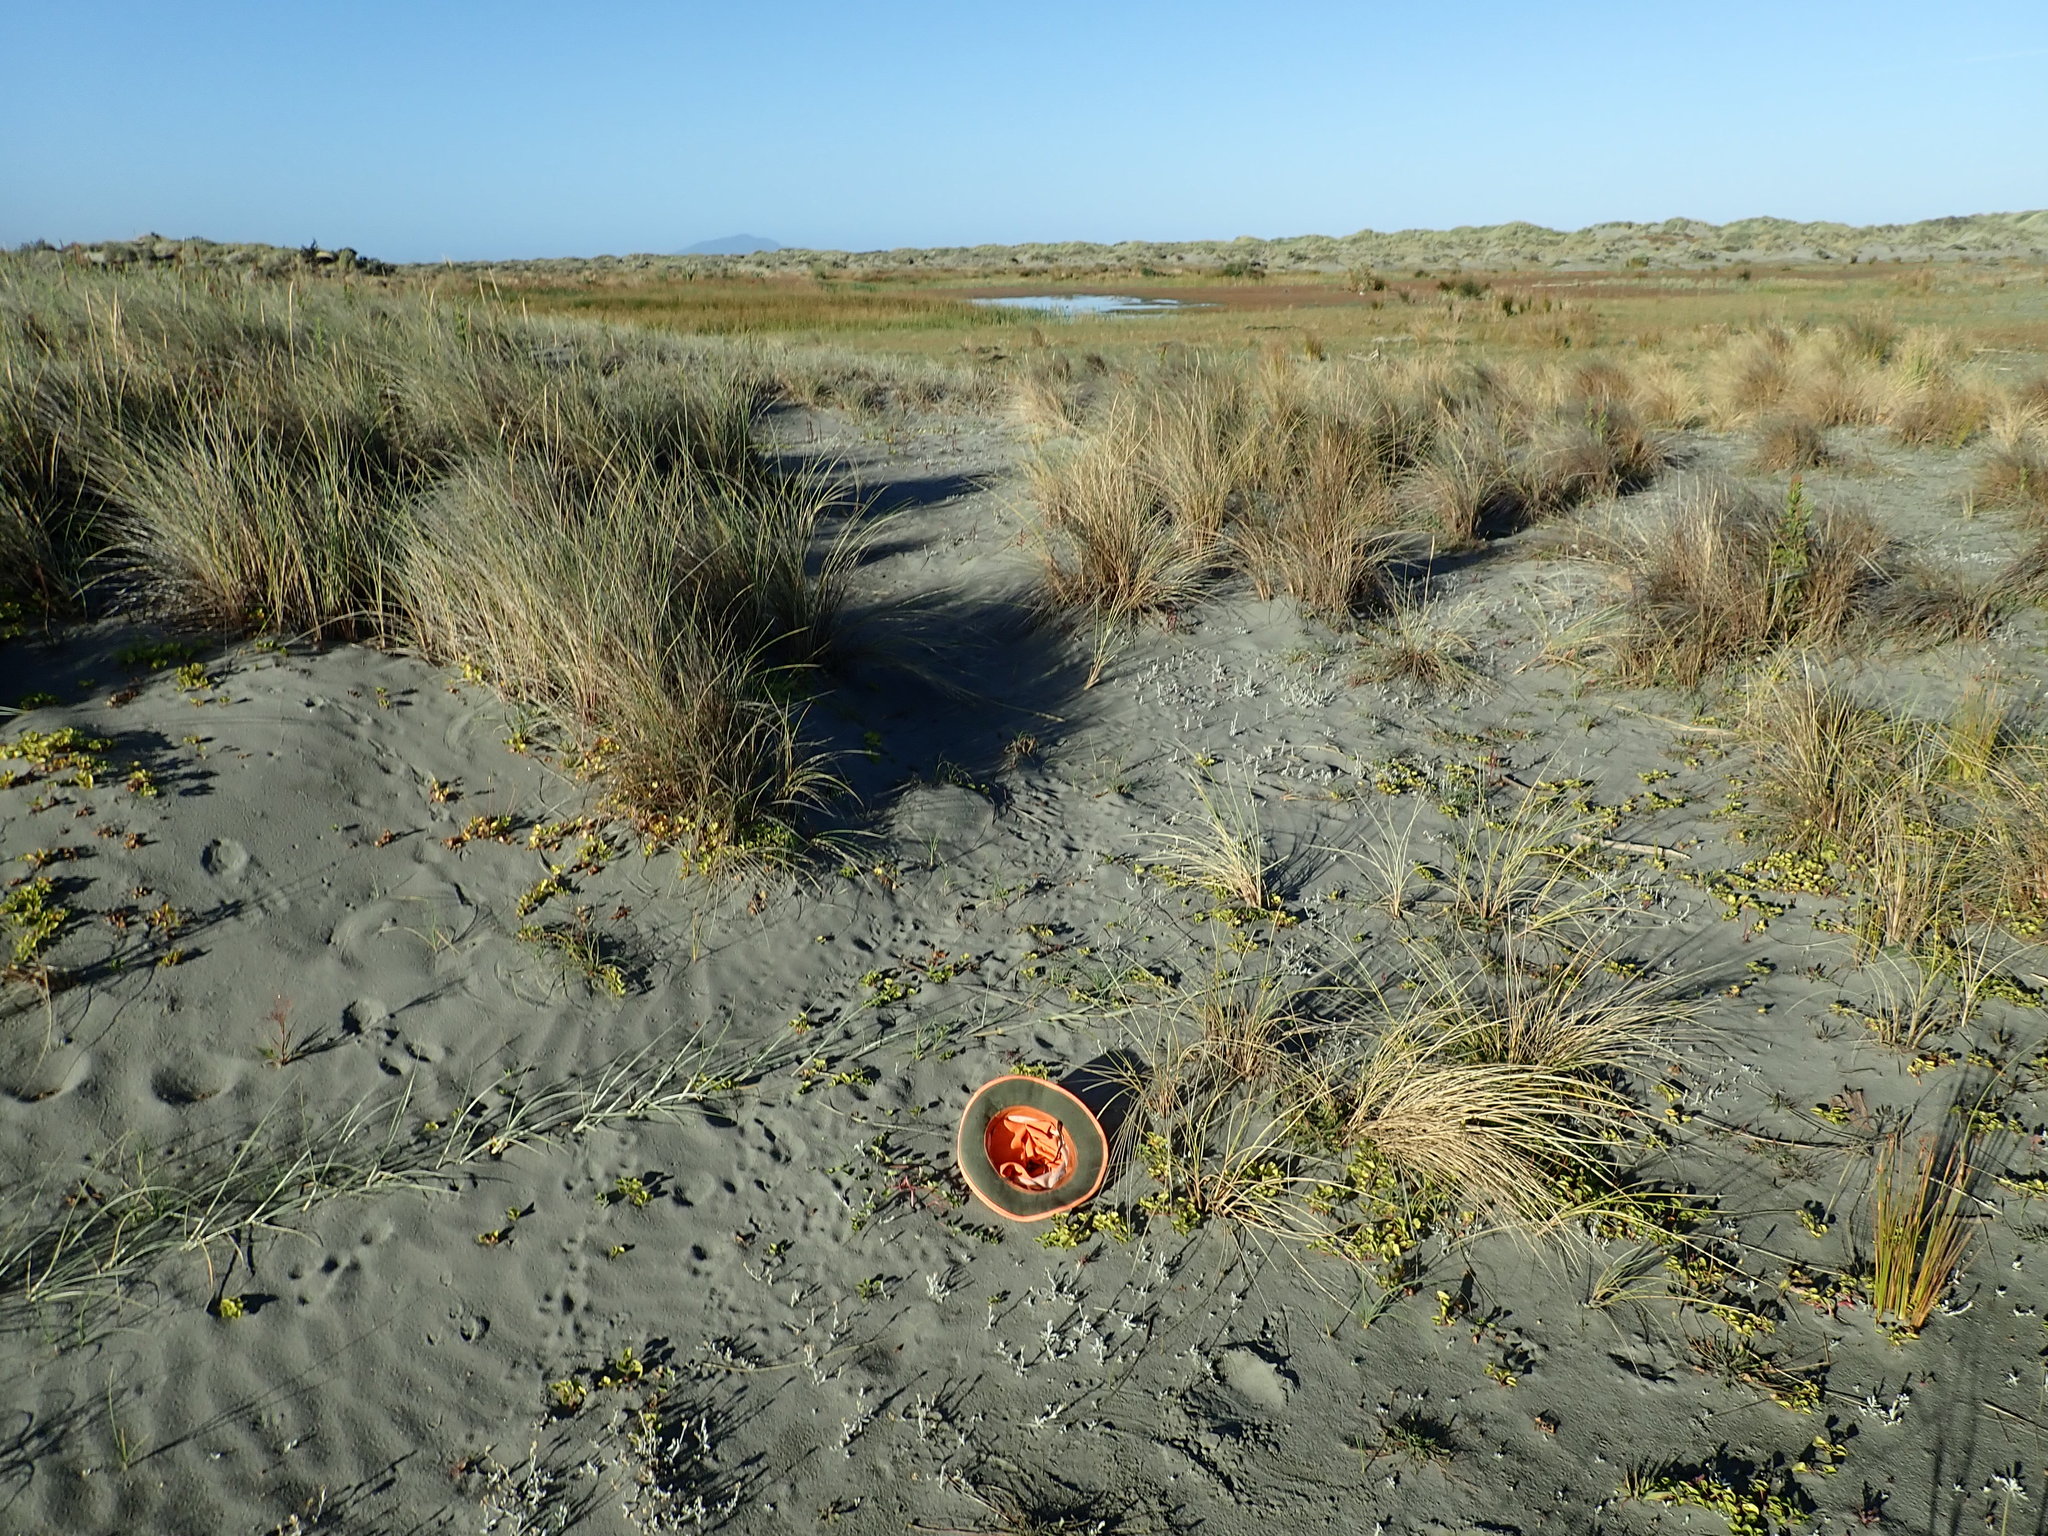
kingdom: Plantae
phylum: Tracheophyta
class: Magnoliopsida
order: Solanales
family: Convolvulaceae
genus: Calystegia
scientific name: Calystegia soldanella
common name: Sea bindweed
